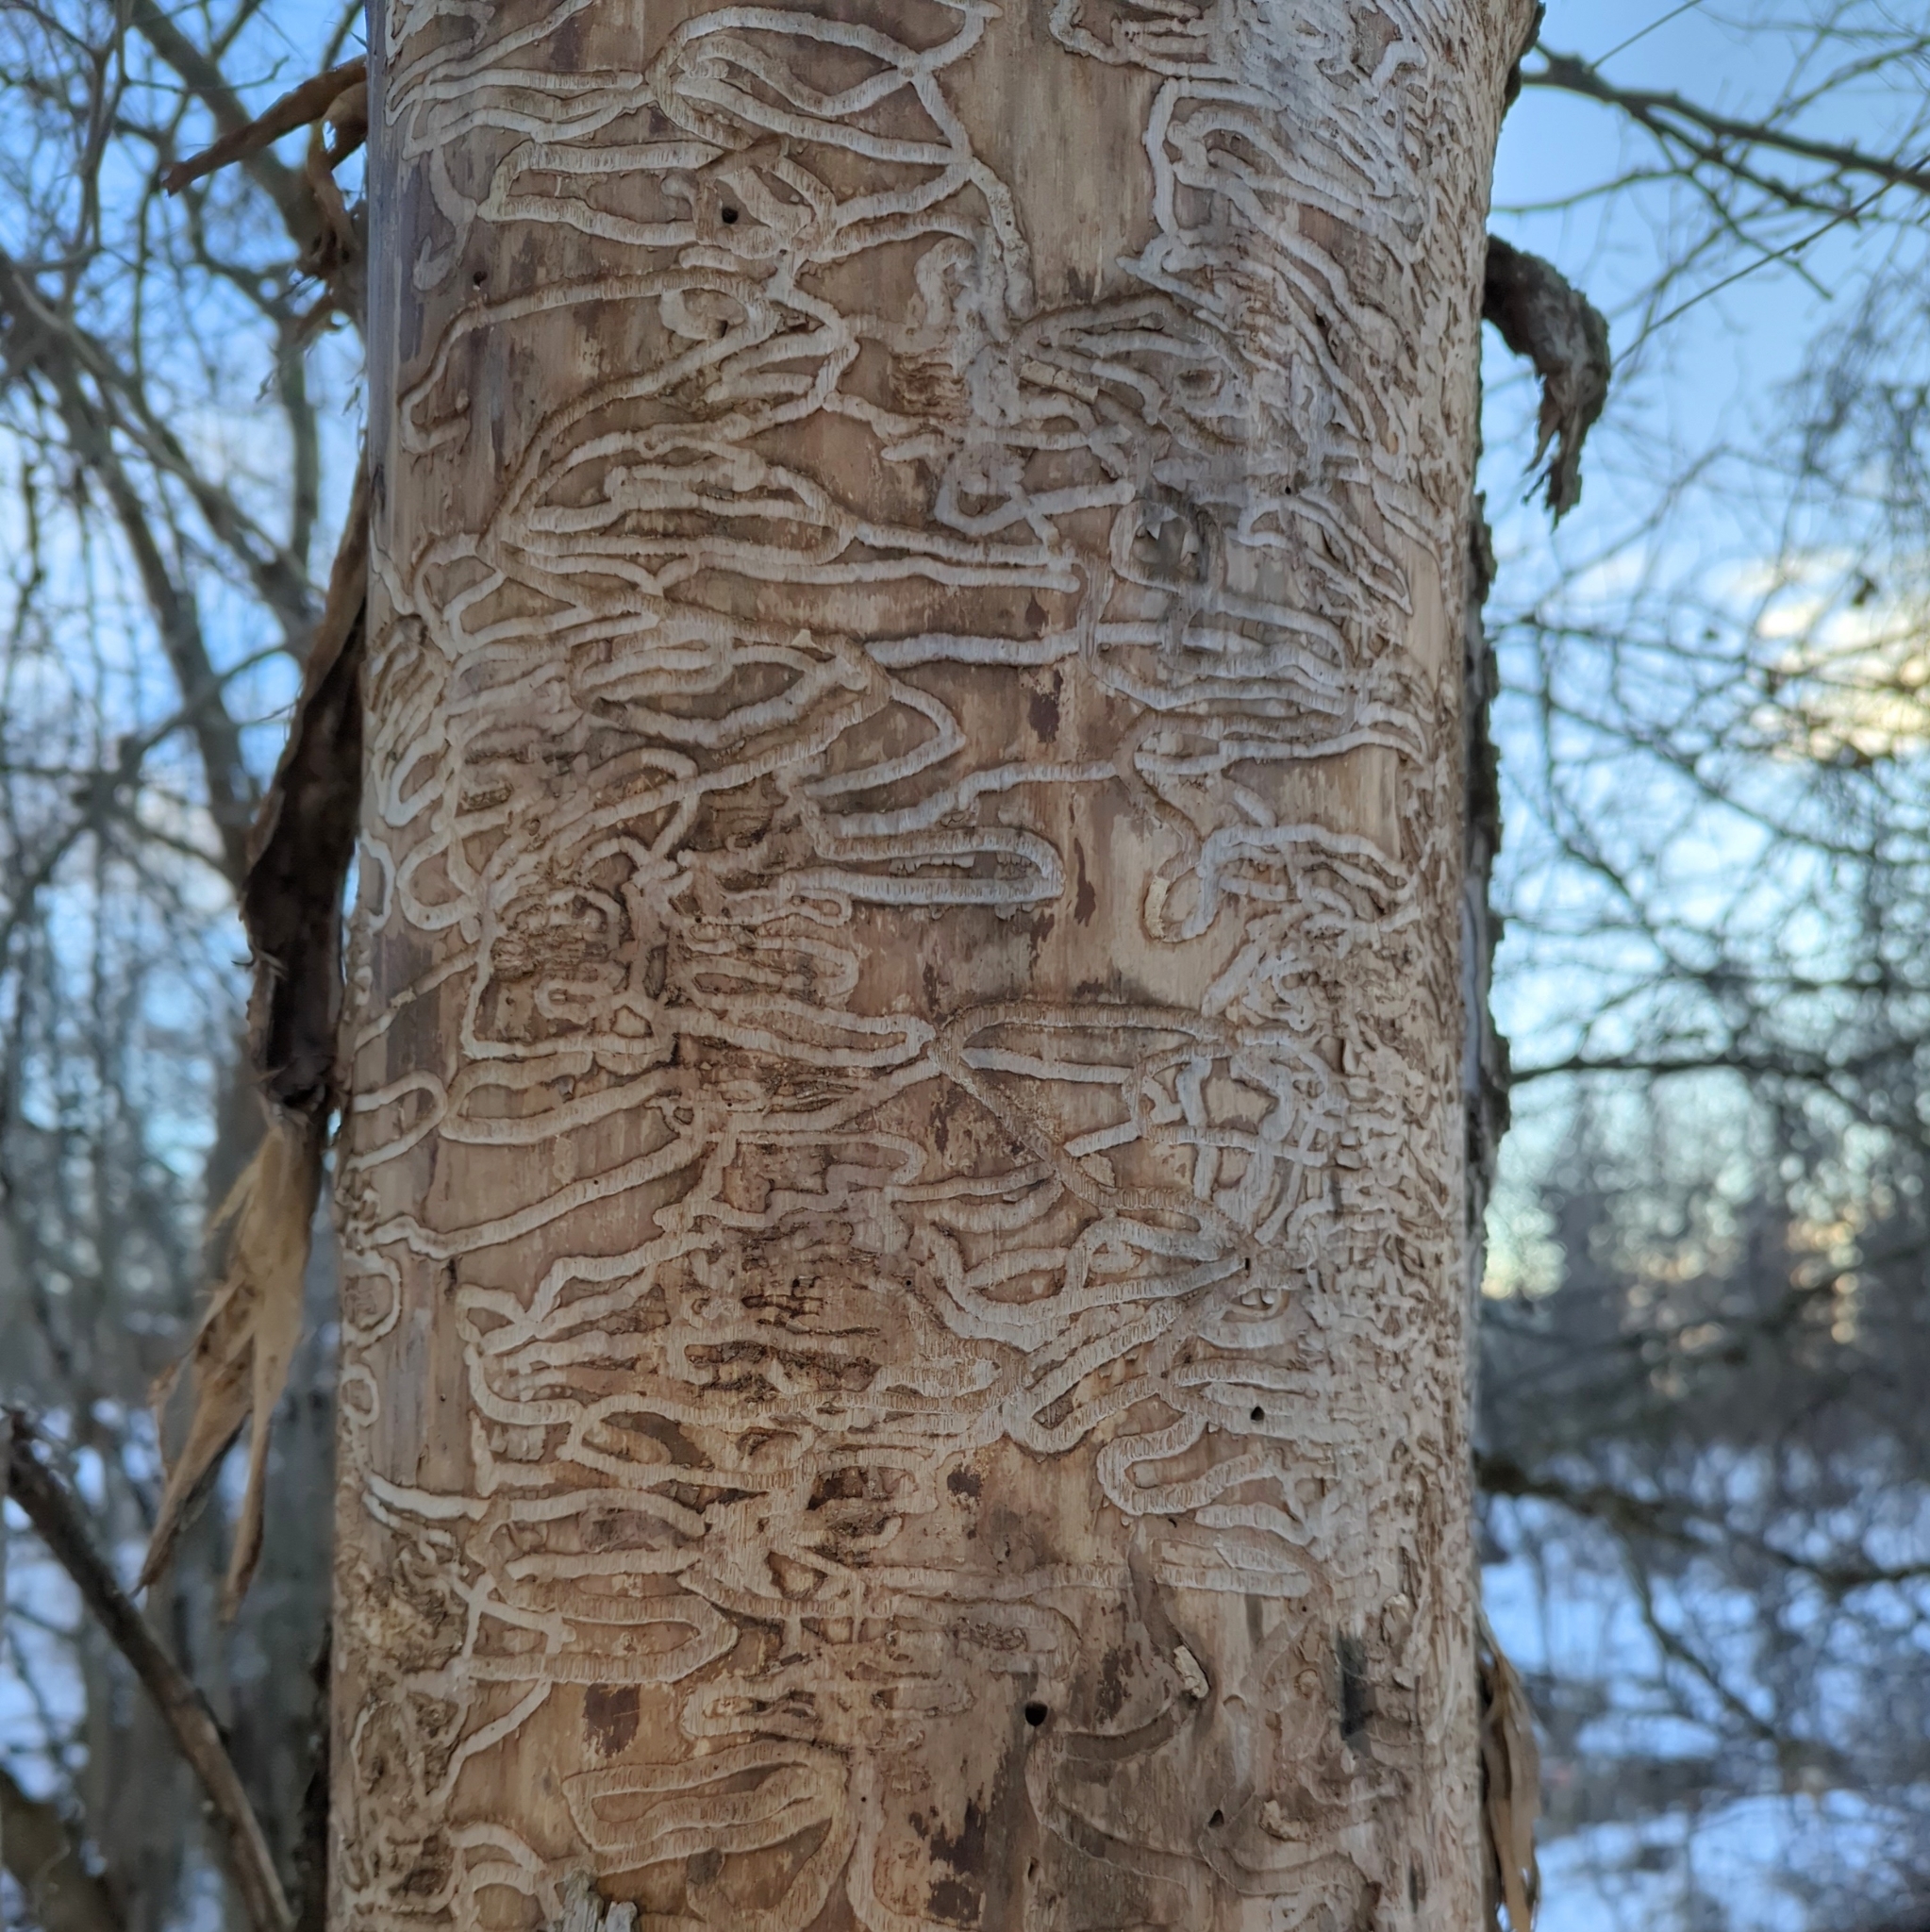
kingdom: Animalia
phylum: Arthropoda
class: Insecta
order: Coleoptera
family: Buprestidae
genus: Agrilus
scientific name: Agrilus planipennis
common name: Emerald ash borer
